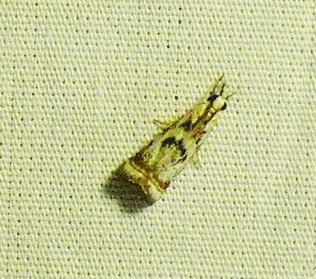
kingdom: Animalia
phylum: Arthropoda
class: Insecta
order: Lepidoptera
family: Crambidae
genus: Microcrambus
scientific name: Microcrambus elegans
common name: Elegant grass-veneer
